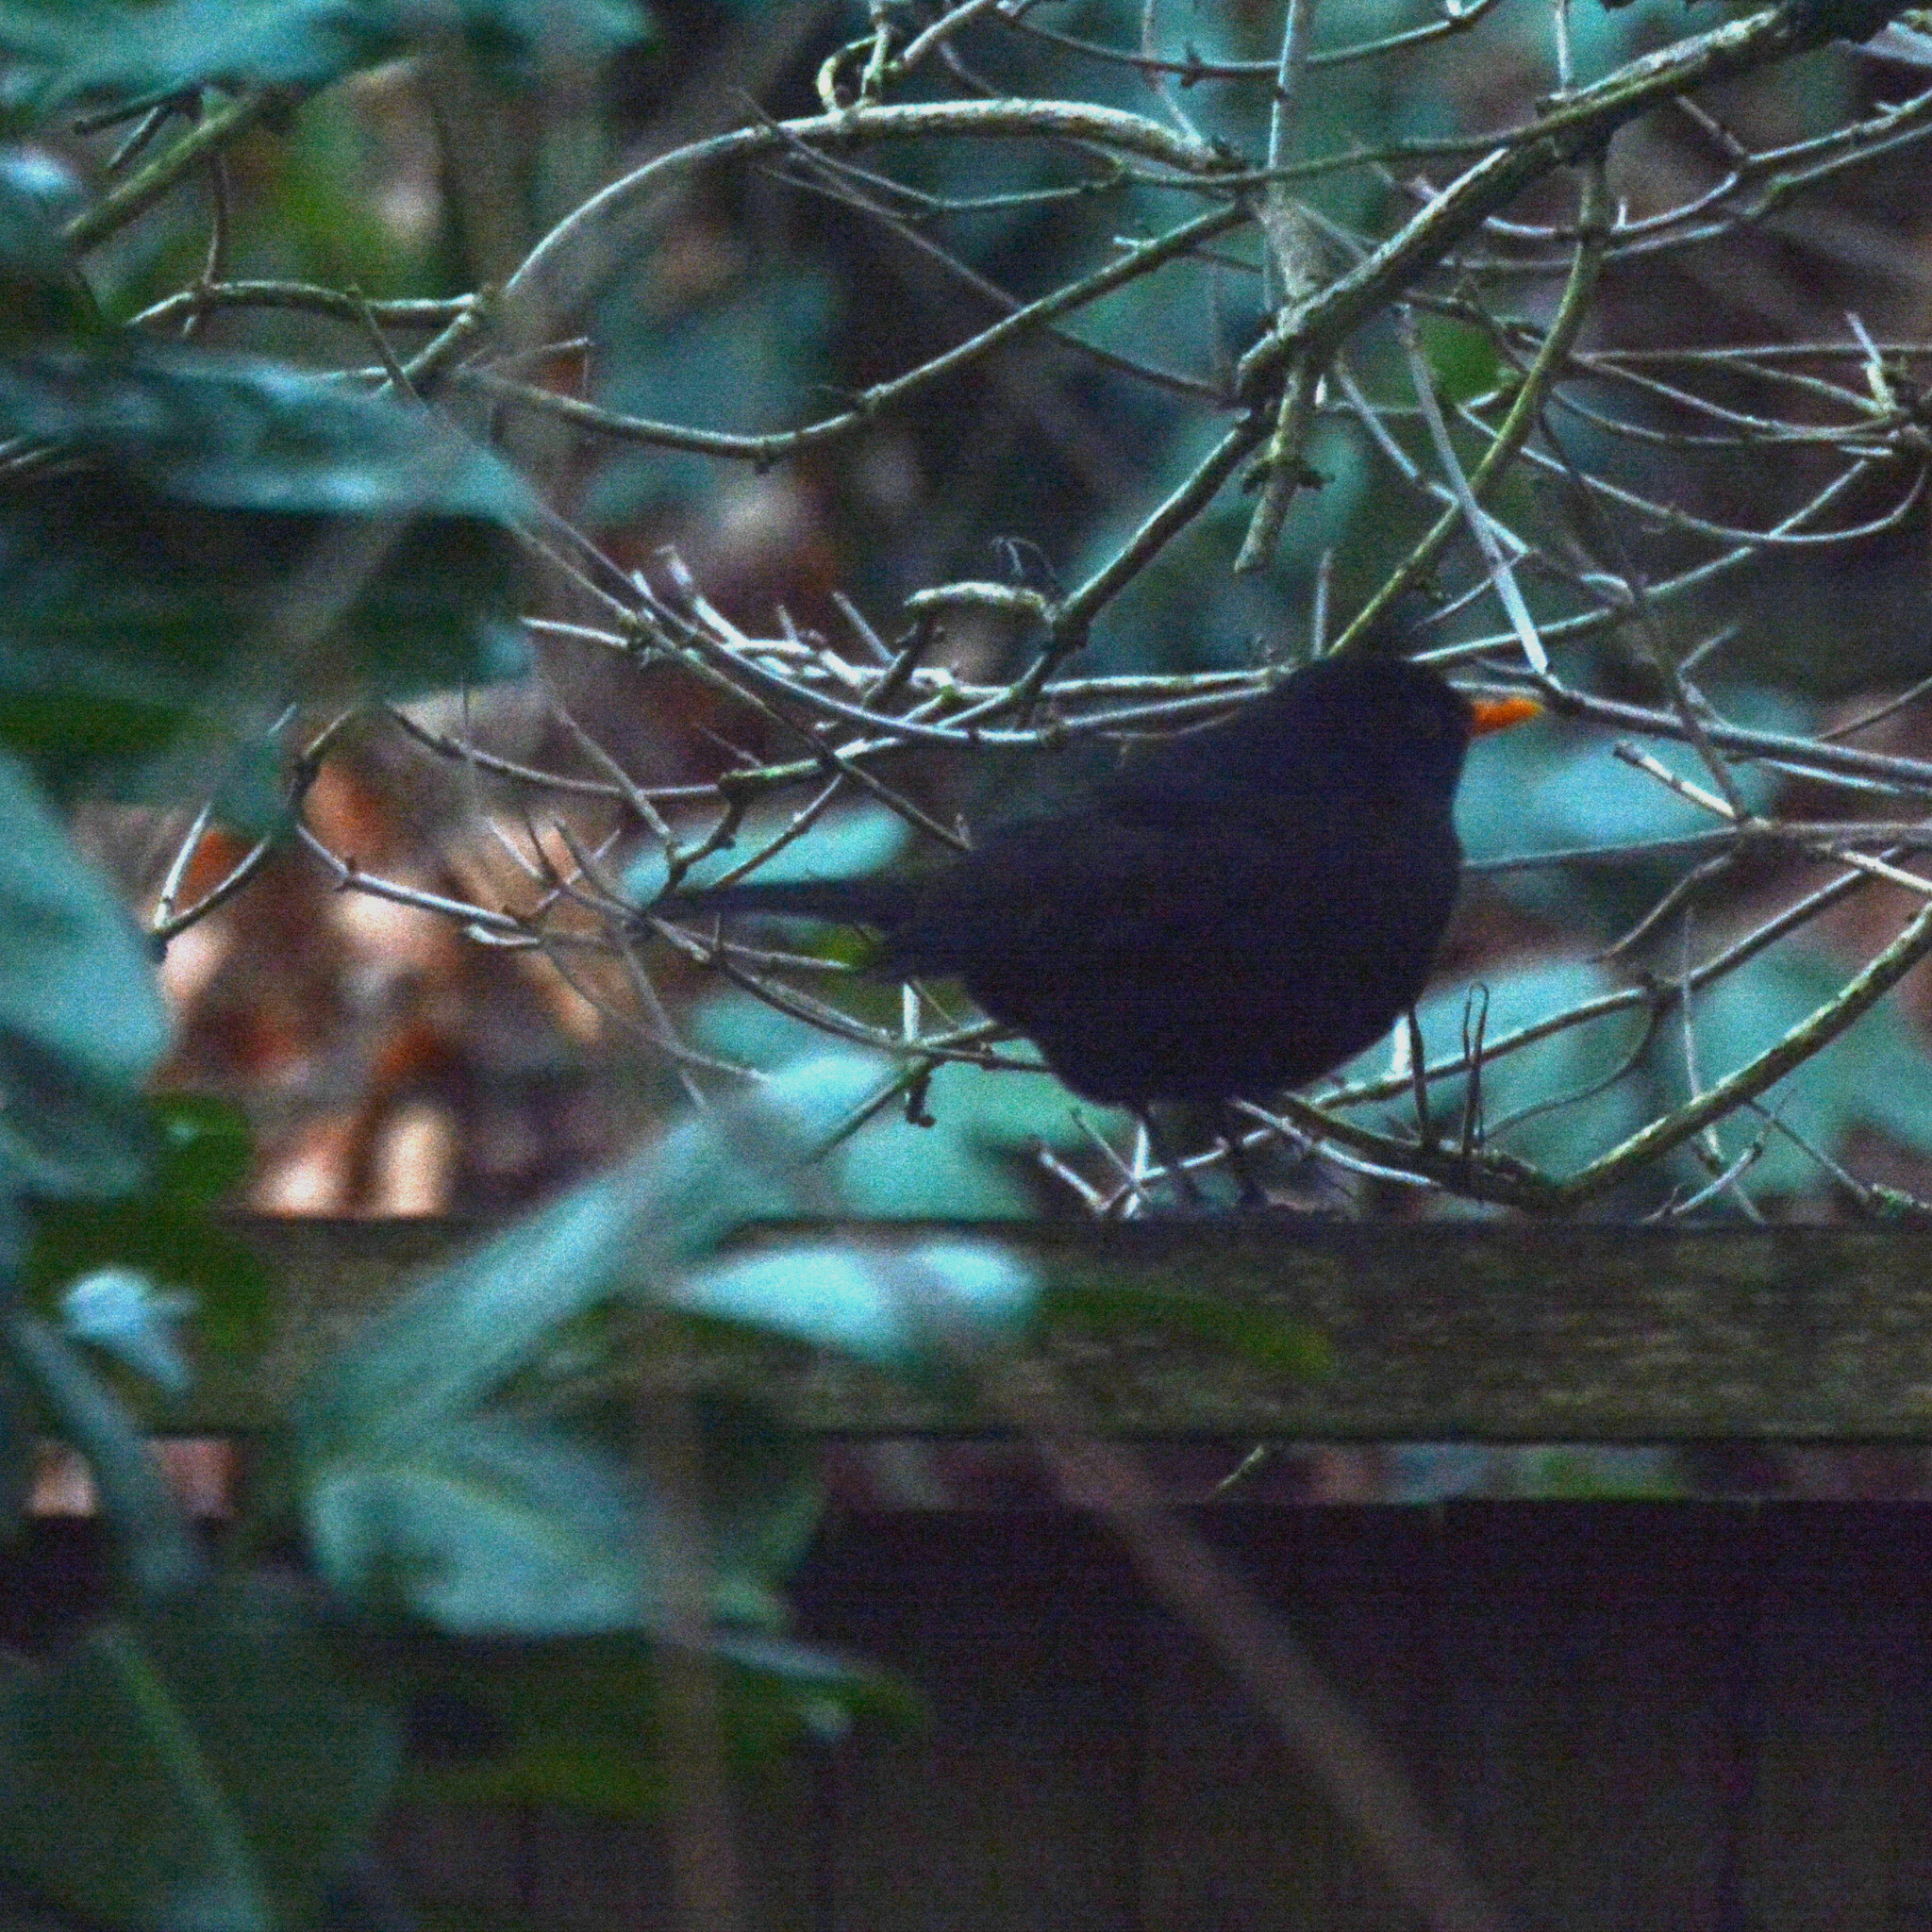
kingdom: Animalia
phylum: Chordata
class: Aves
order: Passeriformes
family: Turdidae
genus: Turdus
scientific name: Turdus merula
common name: Common blackbird
